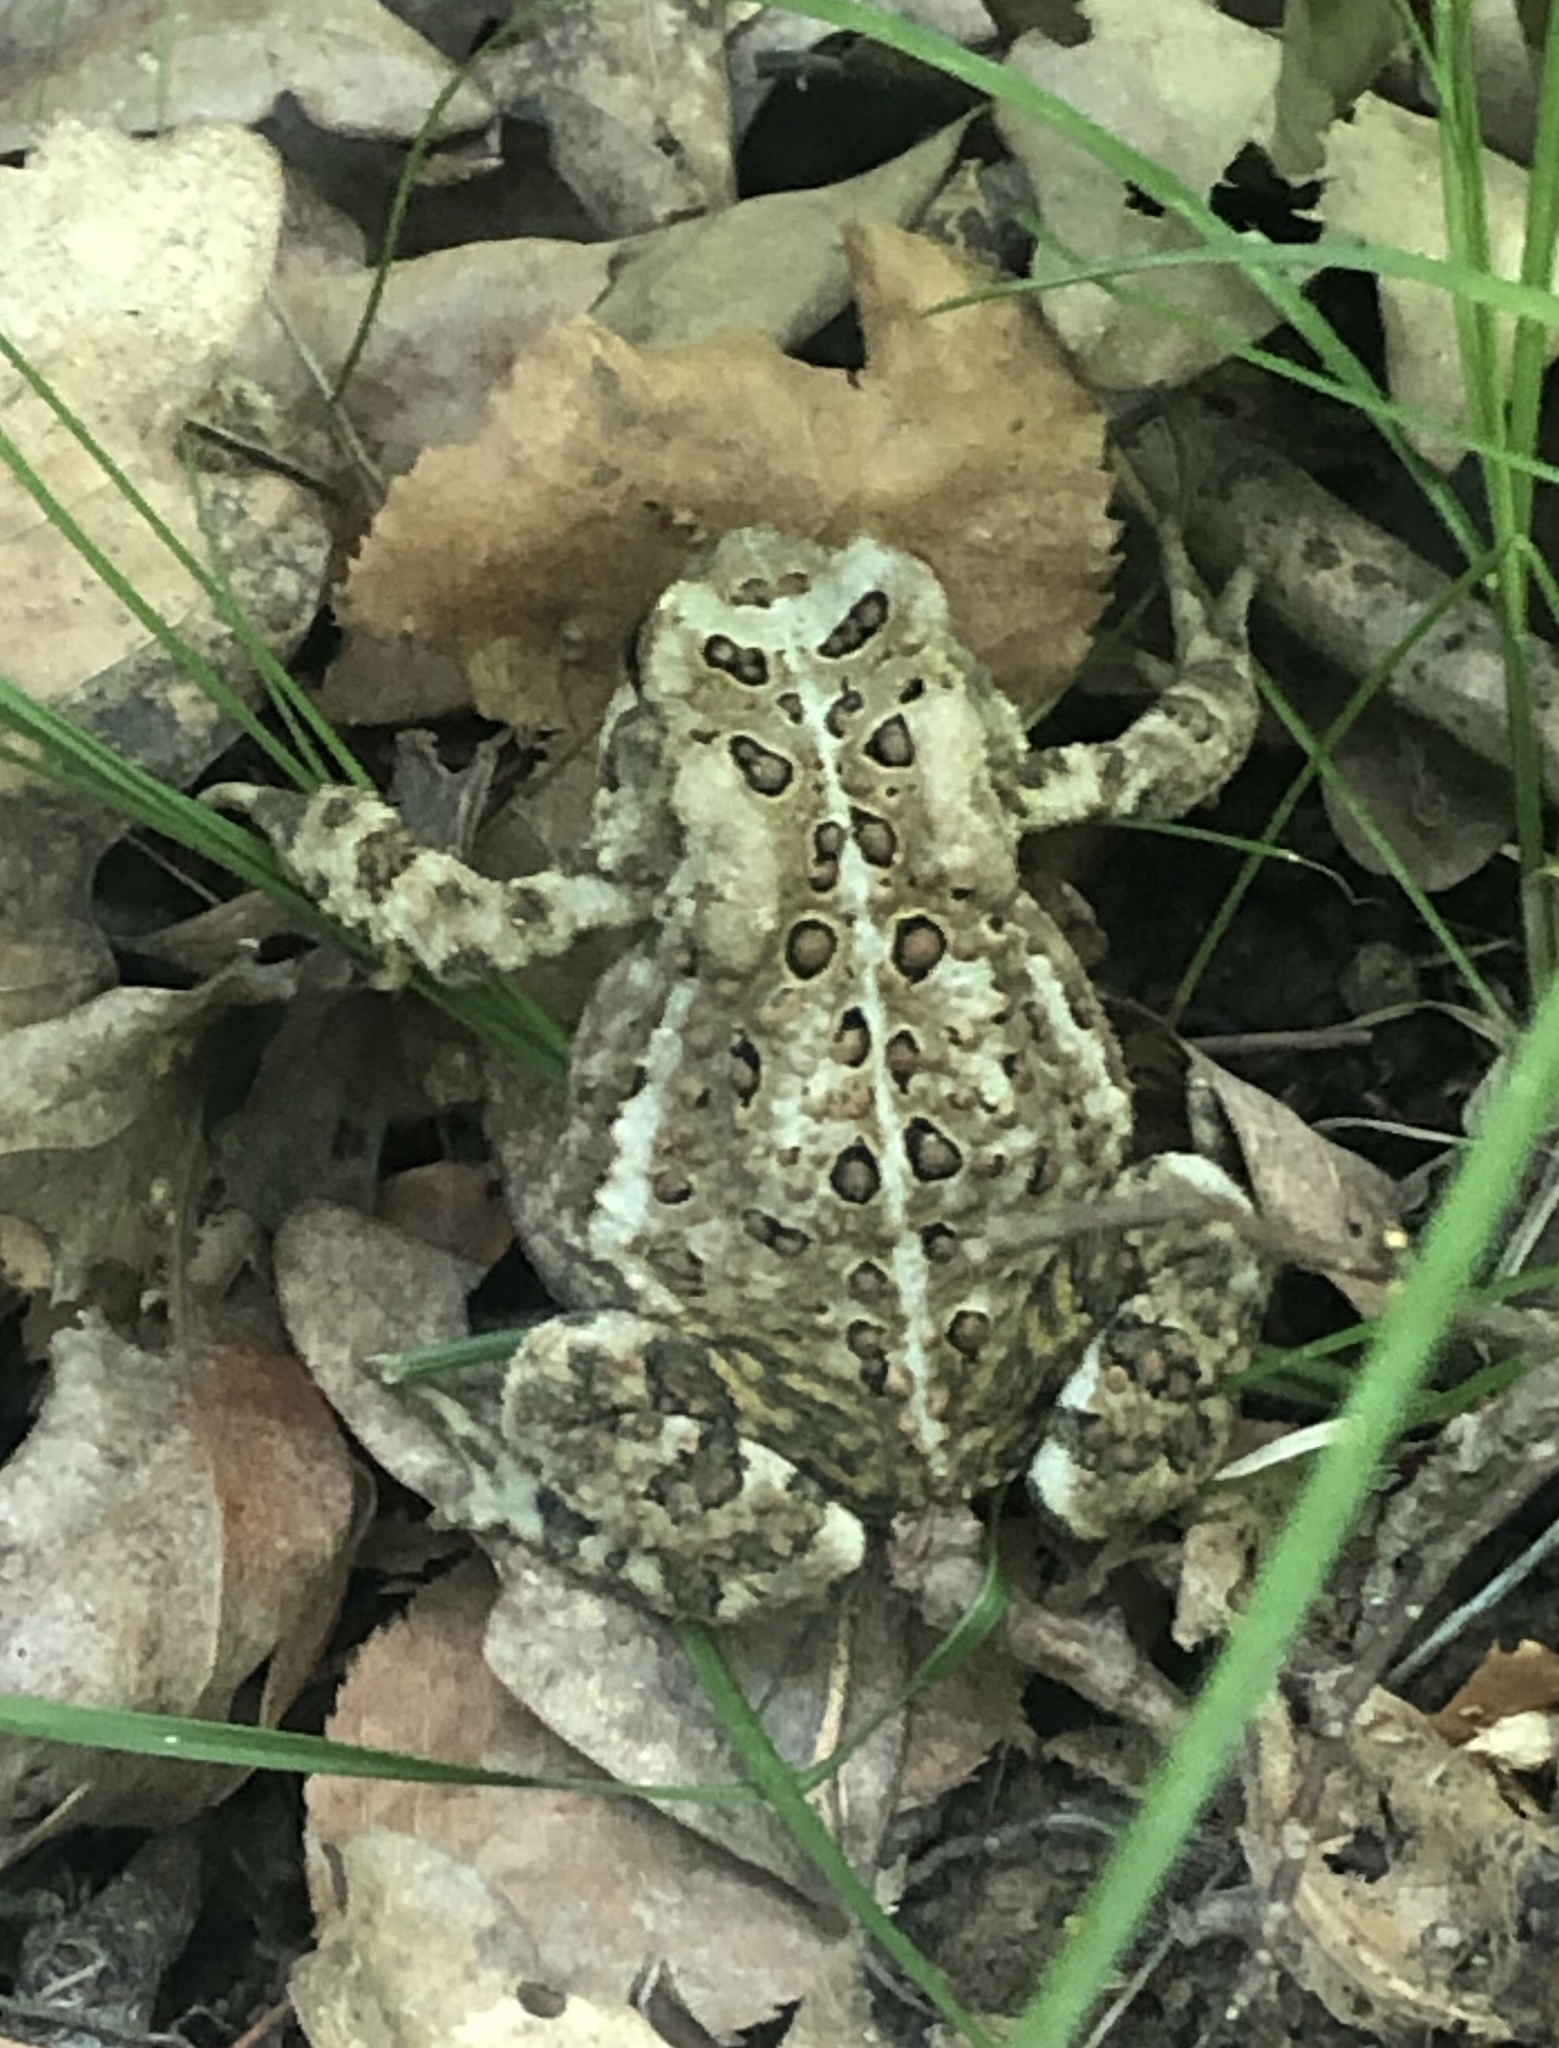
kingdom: Animalia
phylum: Chordata
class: Amphibia
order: Anura
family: Bufonidae
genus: Anaxyrus
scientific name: Anaxyrus americanus
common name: American toad
